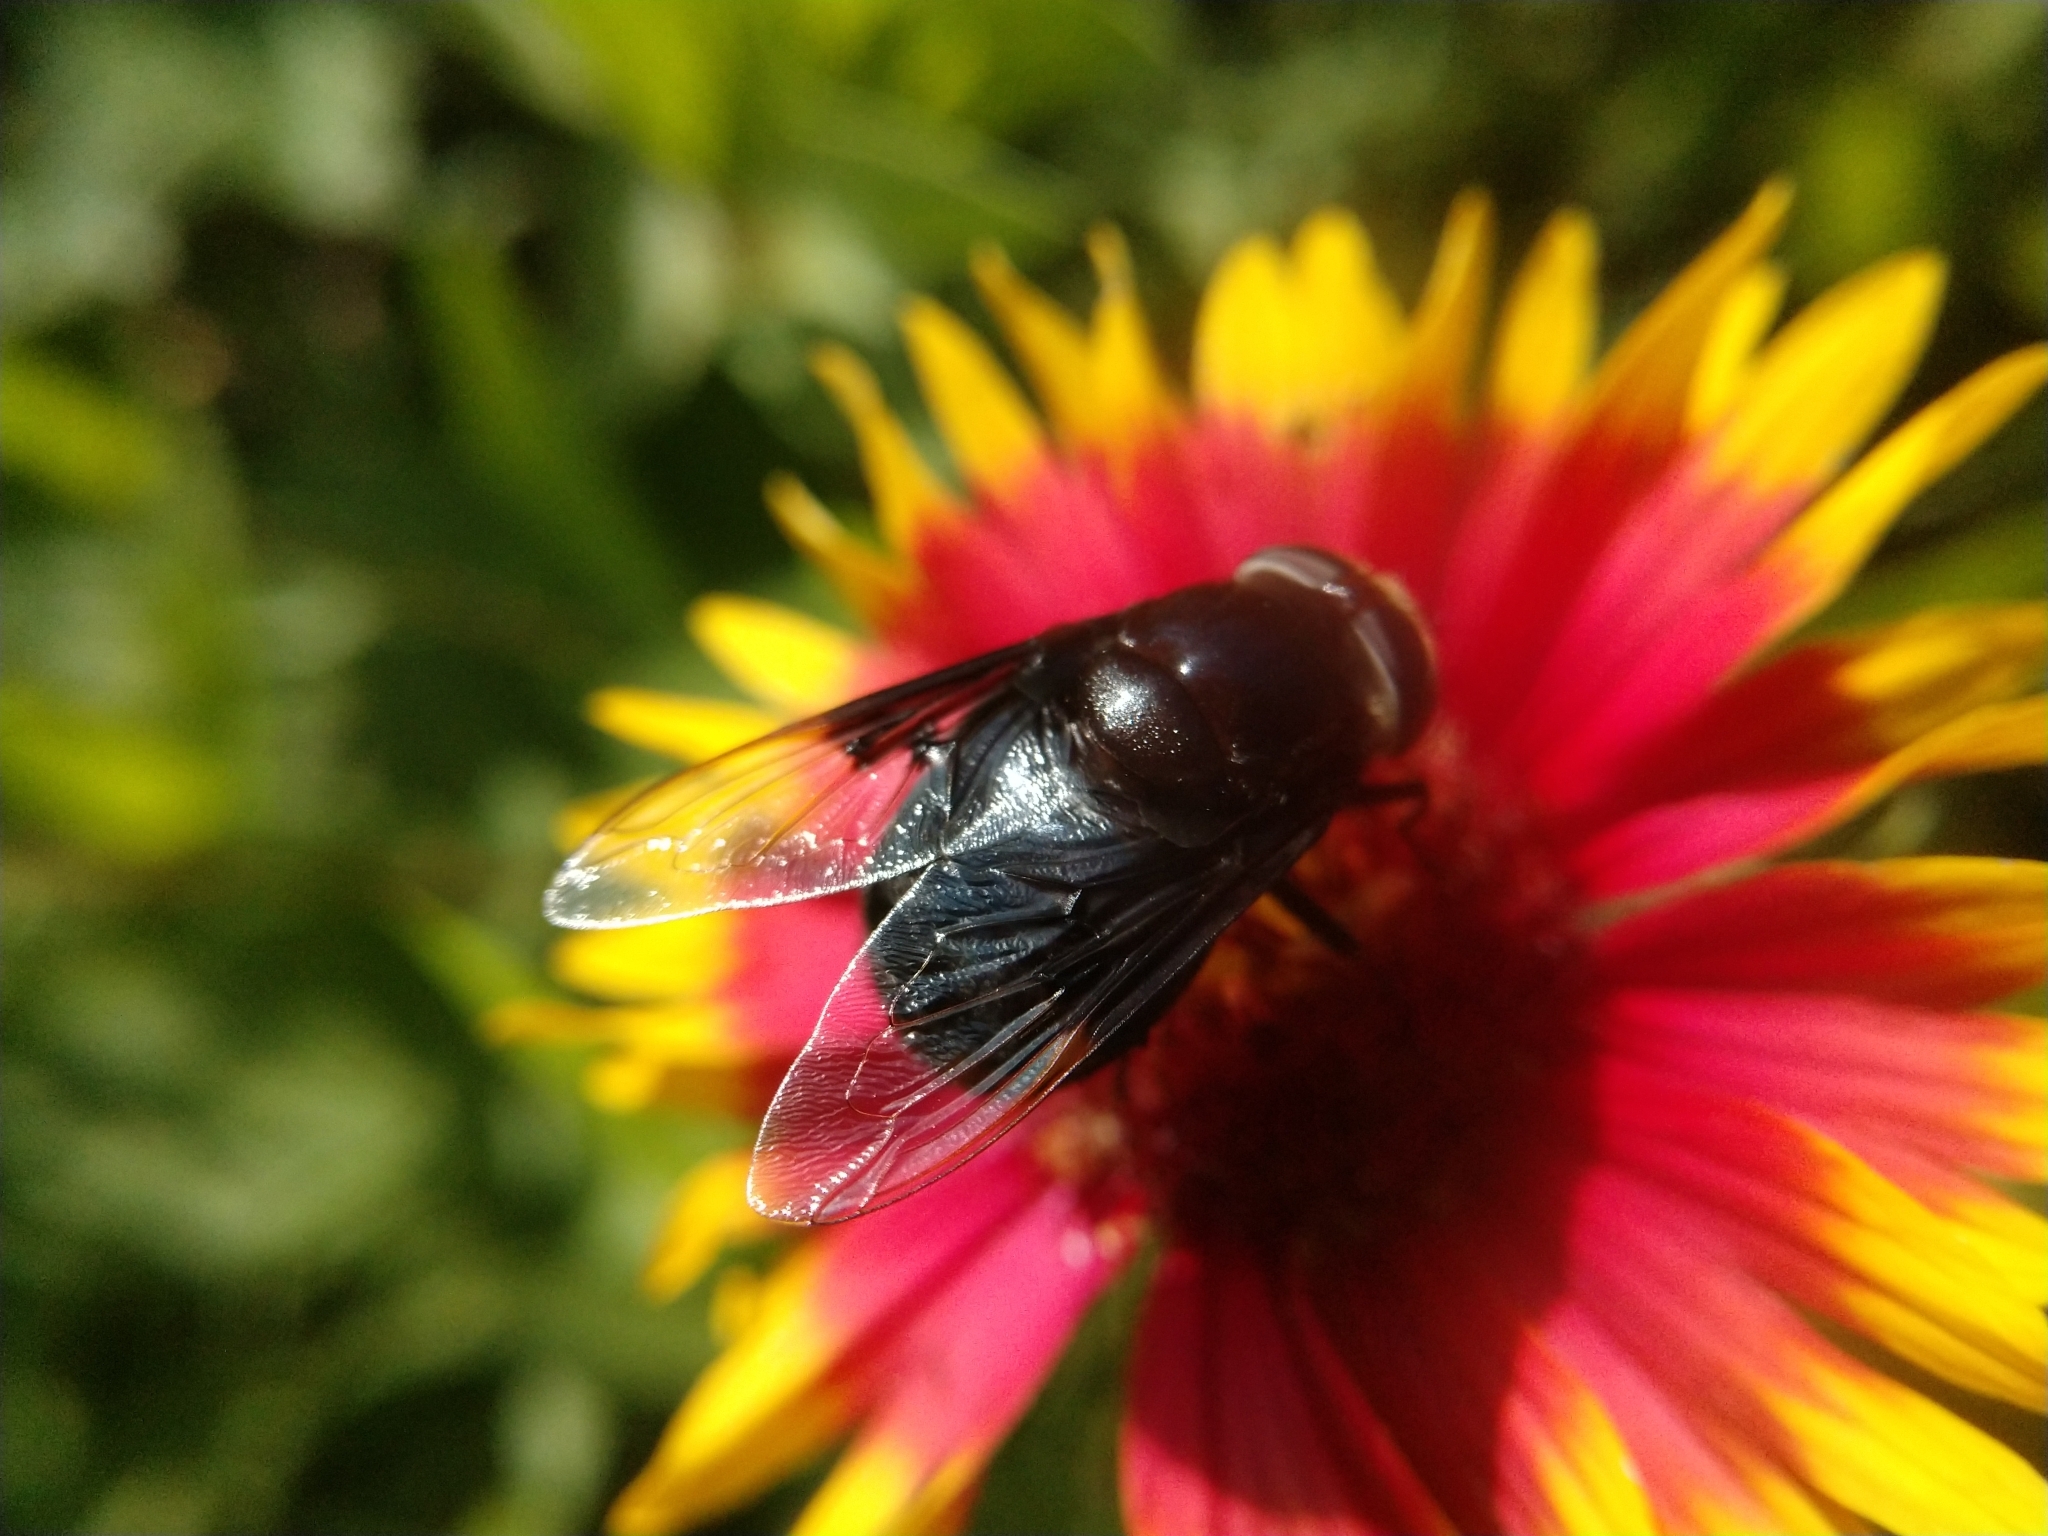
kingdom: Animalia
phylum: Arthropoda
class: Insecta
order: Diptera
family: Syrphidae
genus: Copestylum
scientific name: Copestylum
